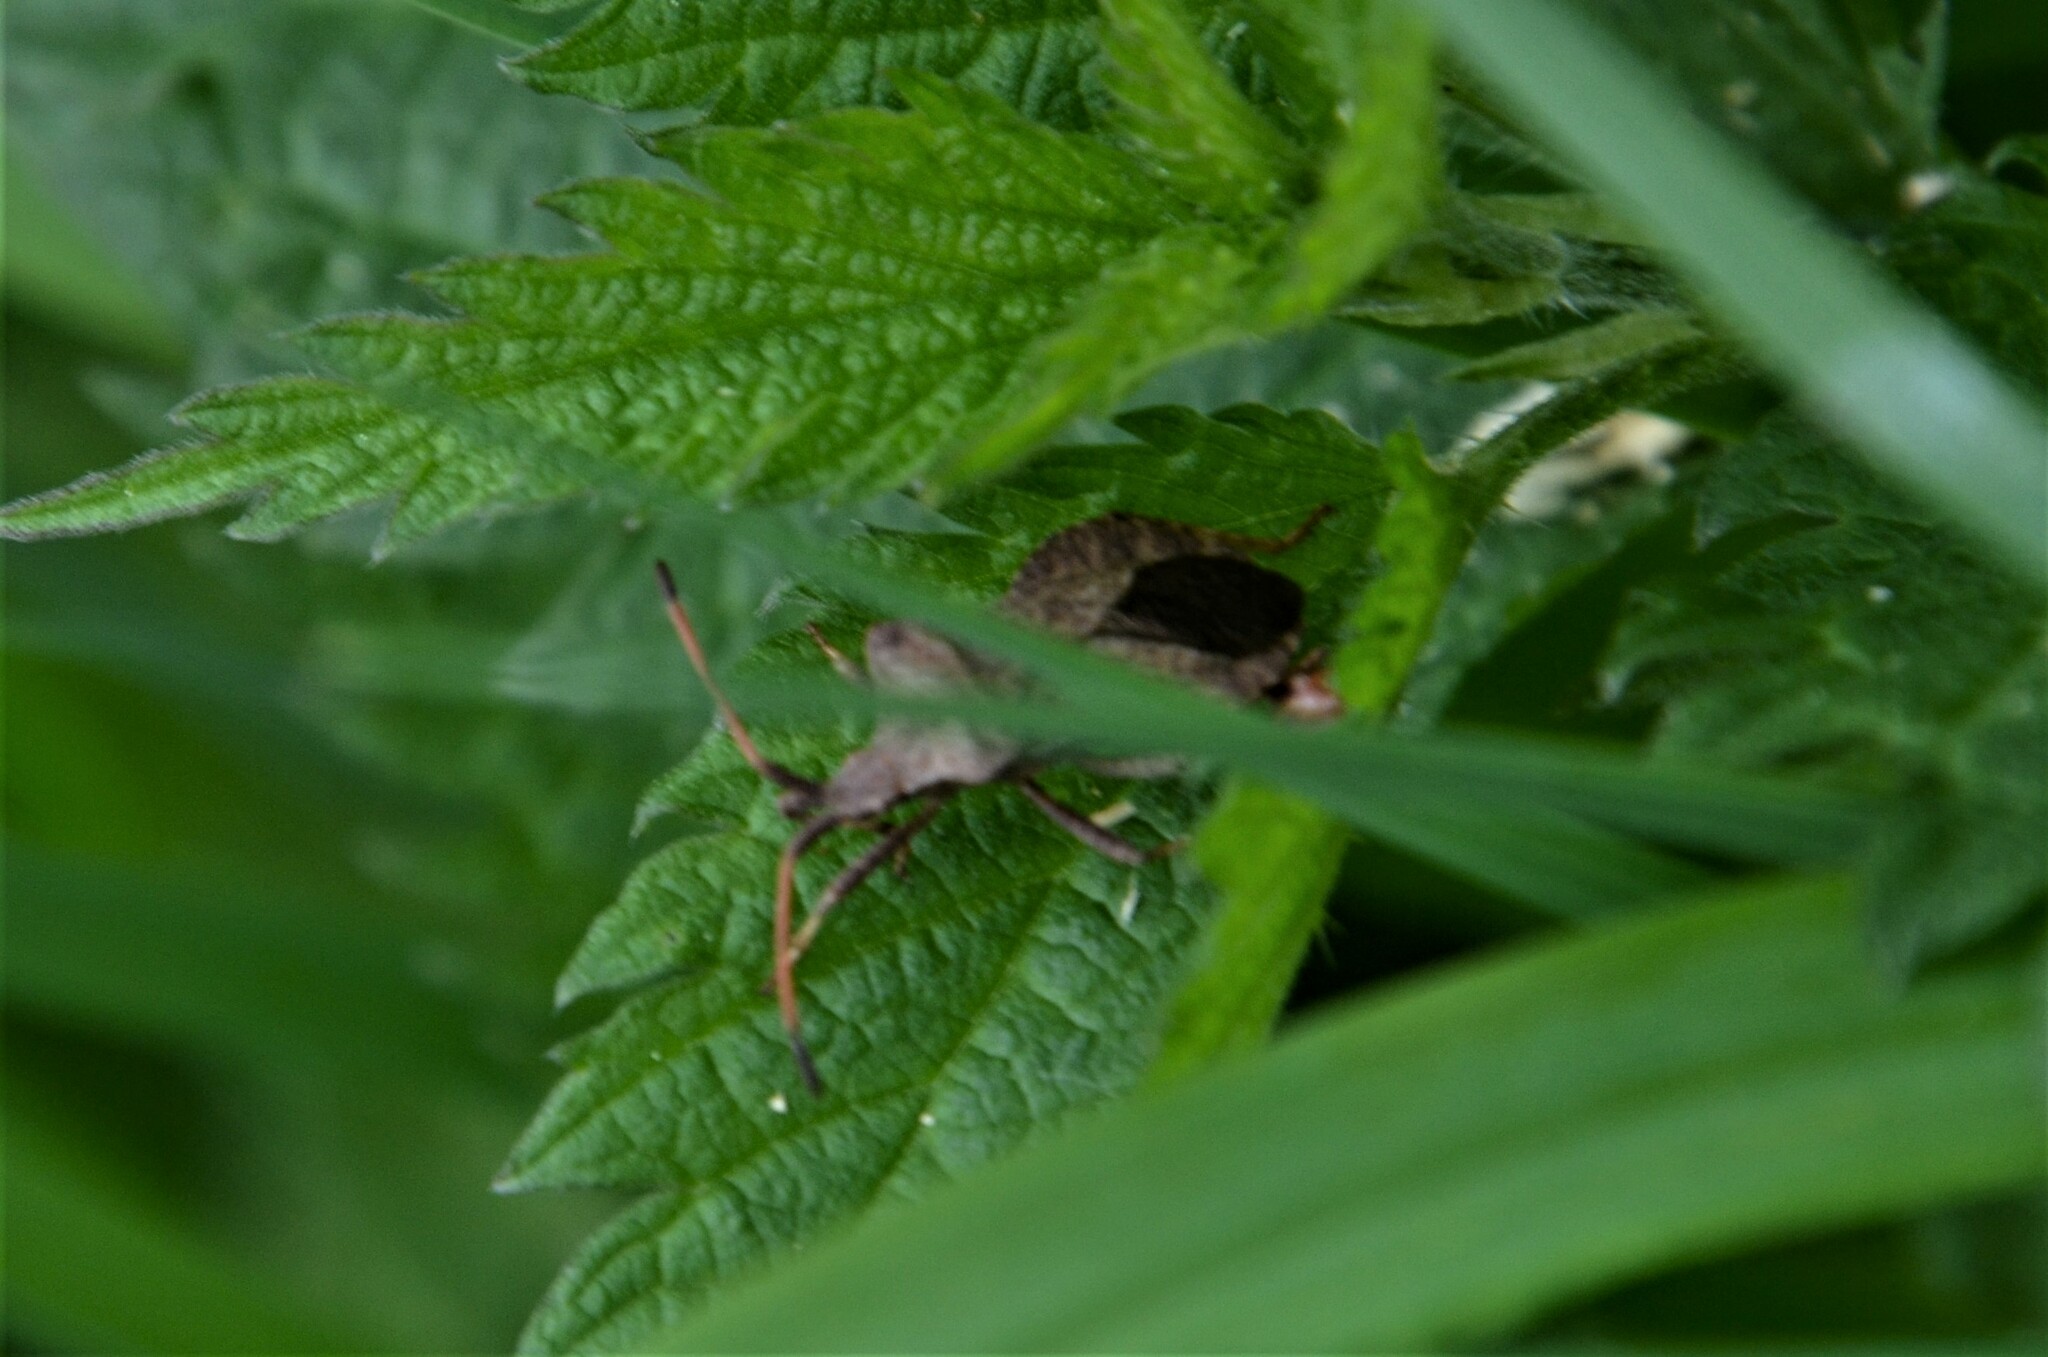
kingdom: Animalia
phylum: Arthropoda
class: Insecta
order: Hemiptera
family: Coreidae
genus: Coreus
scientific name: Coreus marginatus
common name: Dock bug
